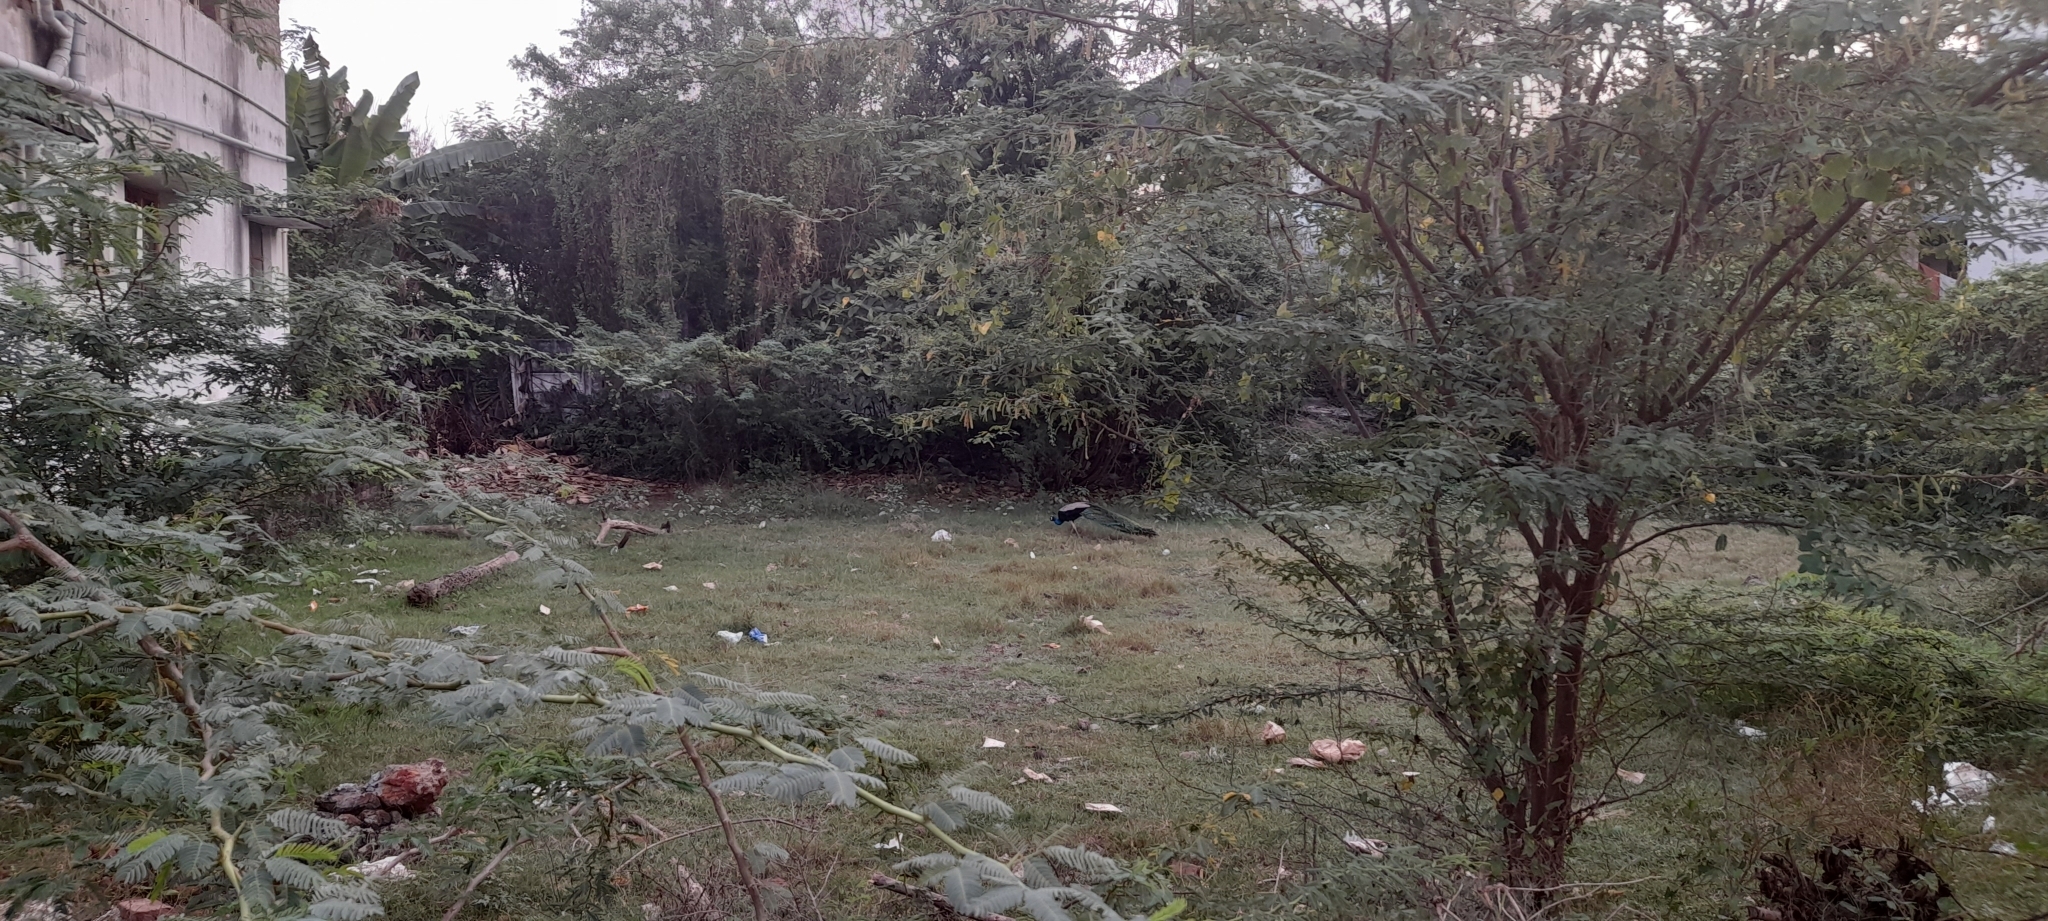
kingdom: Animalia
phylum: Chordata
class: Aves
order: Galliformes
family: Phasianidae
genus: Pavo
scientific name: Pavo cristatus
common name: Indian peafowl
